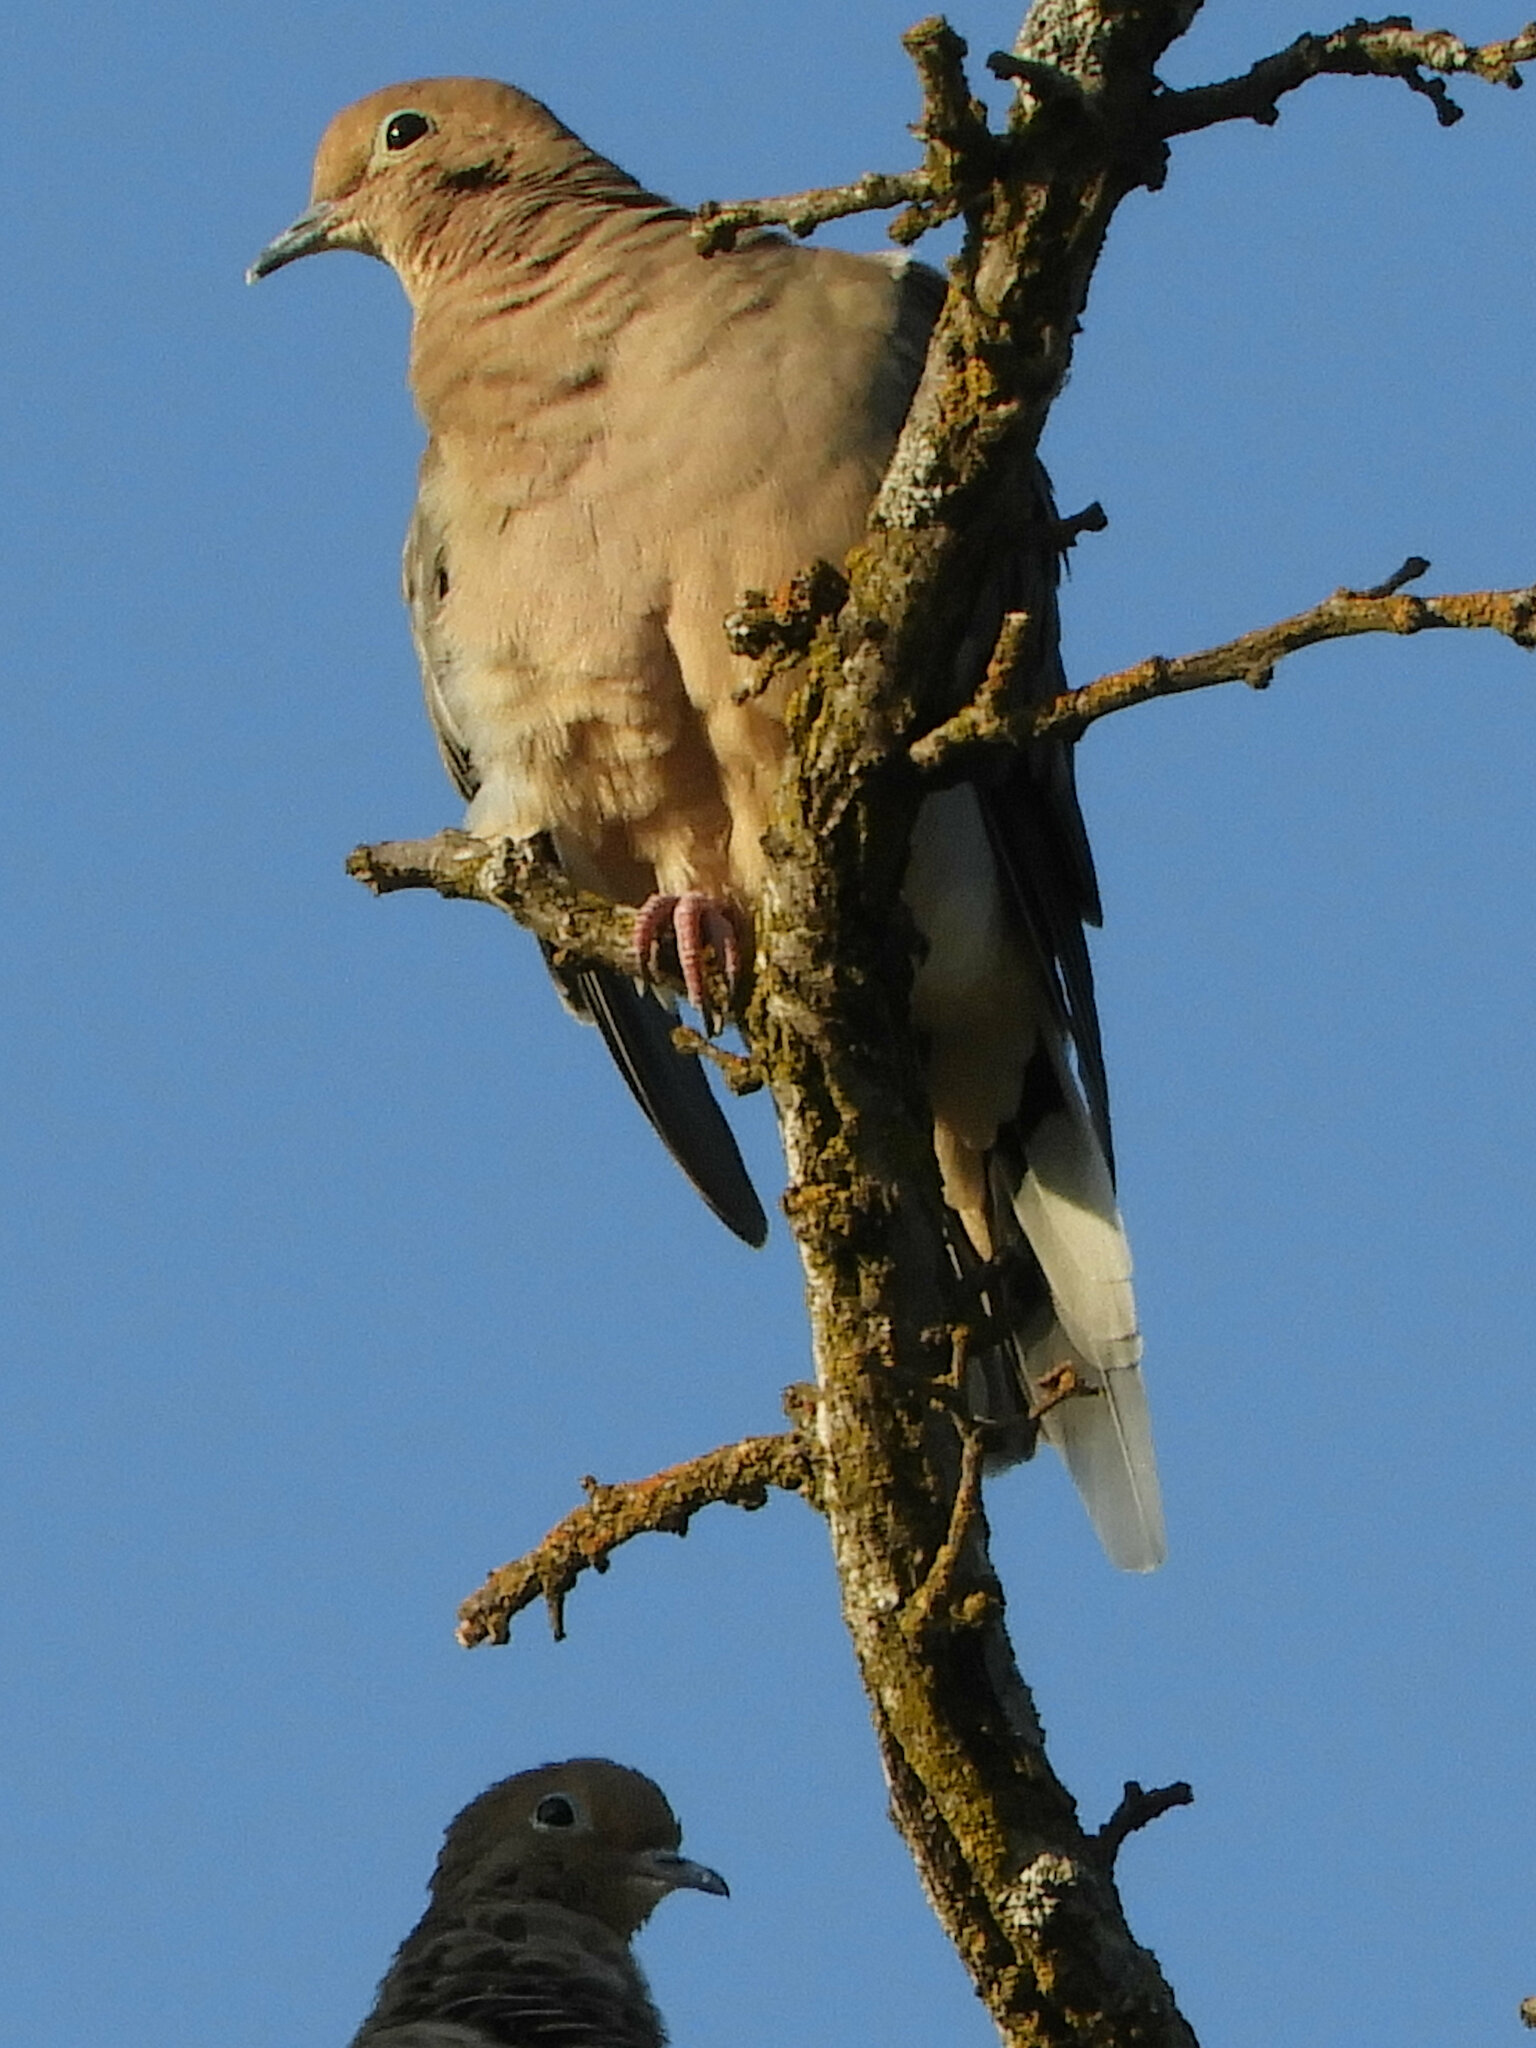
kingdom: Animalia
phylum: Chordata
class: Aves
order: Columbiformes
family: Columbidae
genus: Zenaida
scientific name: Zenaida macroura
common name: Mourning dove
